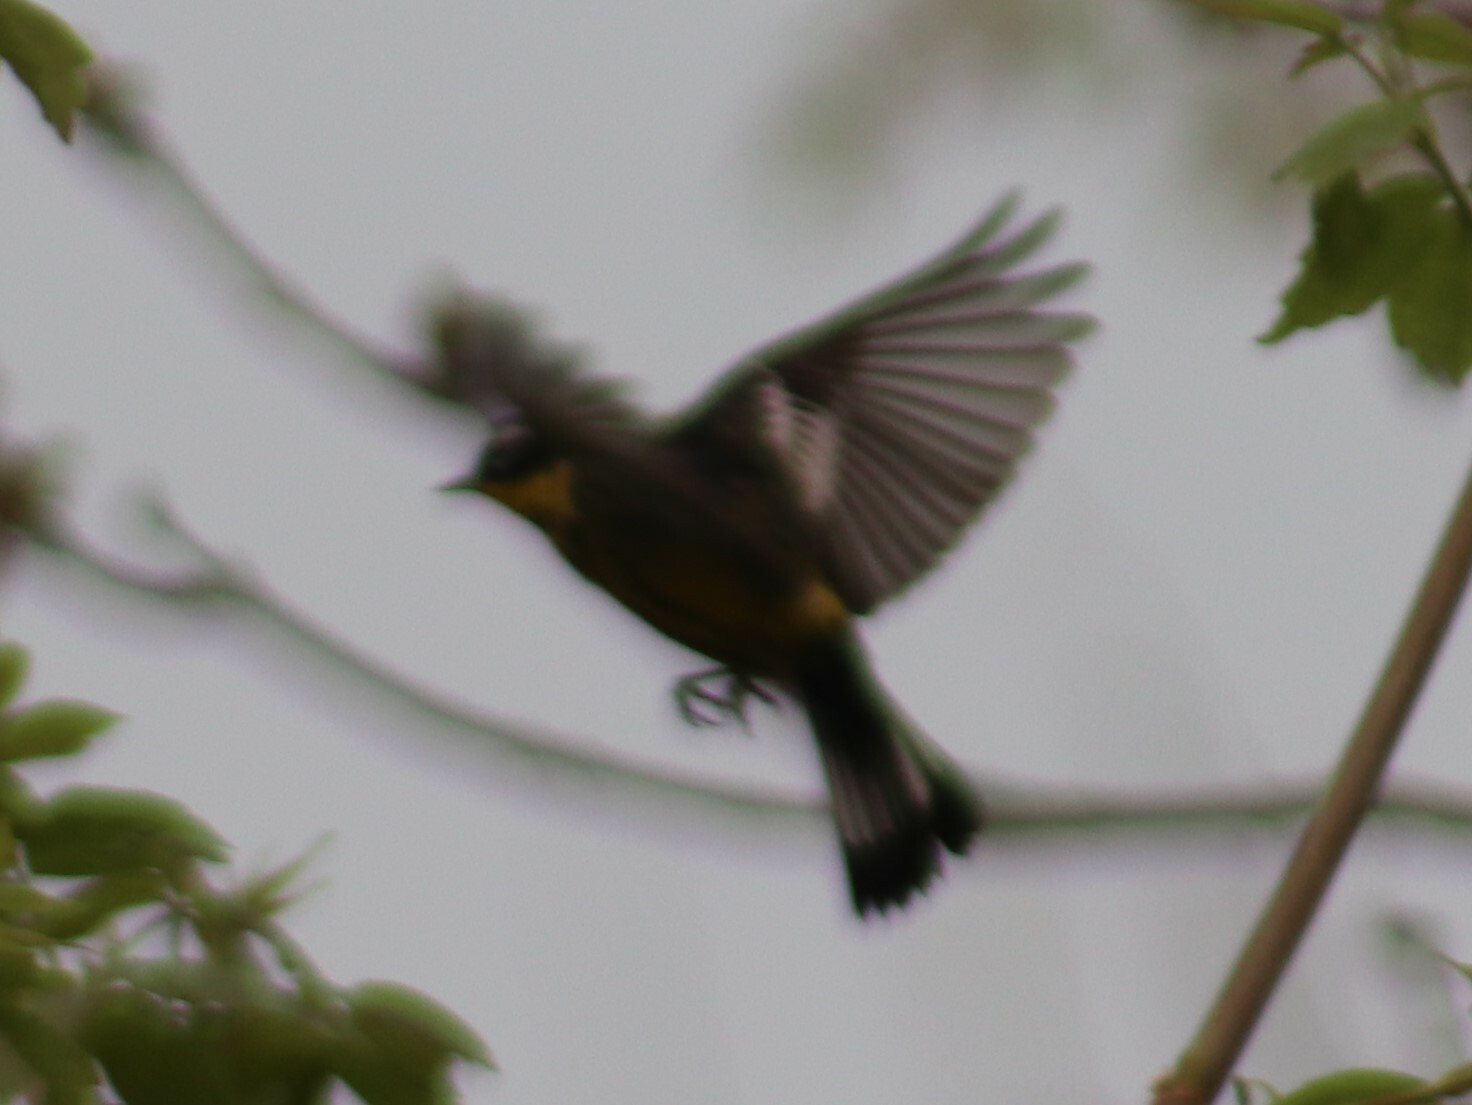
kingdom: Animalia
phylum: Chordata
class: Aves
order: Passeriformes
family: Parulidae
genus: Setophaga
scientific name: Setophaga magnolia
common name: Magnolia warbler
